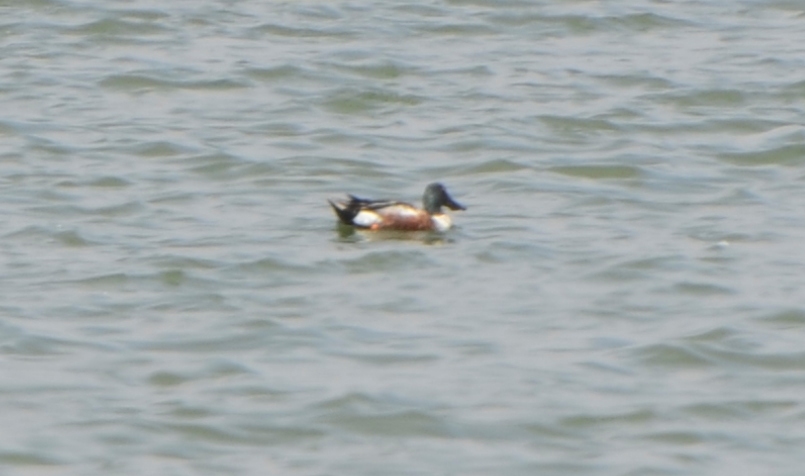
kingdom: Animalia
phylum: Chordata
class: Aves
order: Anseriformes
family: Anatidae
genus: Spatula
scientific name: Spatula clypeata
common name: Northern shoveler
